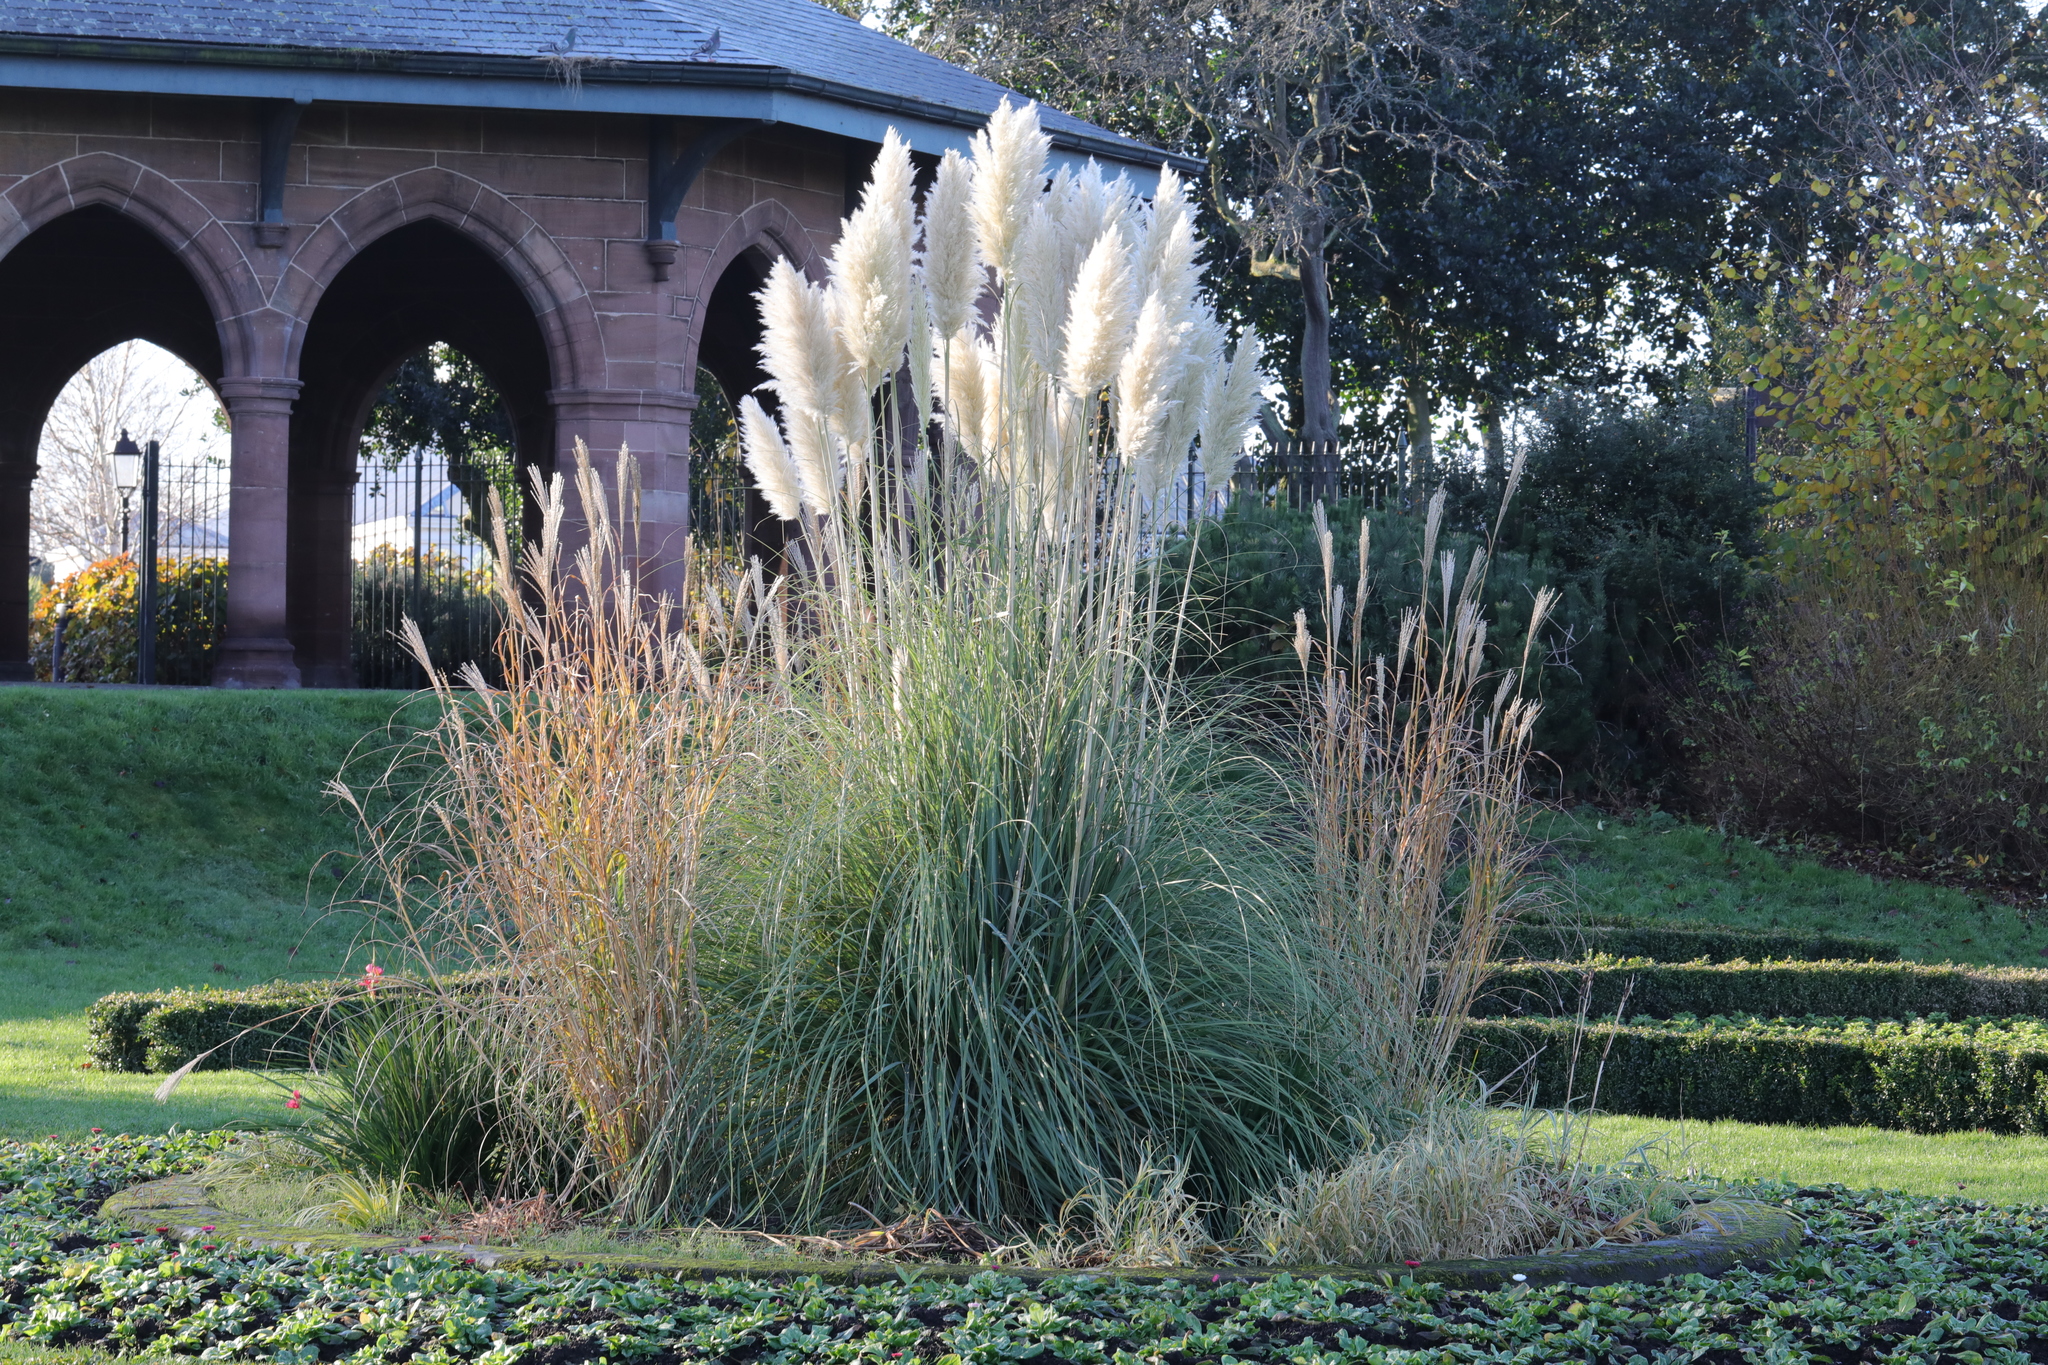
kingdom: Plantae
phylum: Tracheophyta
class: Liliopsida
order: Poales
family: Poaceae
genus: Cortaderia
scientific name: Cortaderia selloana
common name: Uruguayan pampas grass
